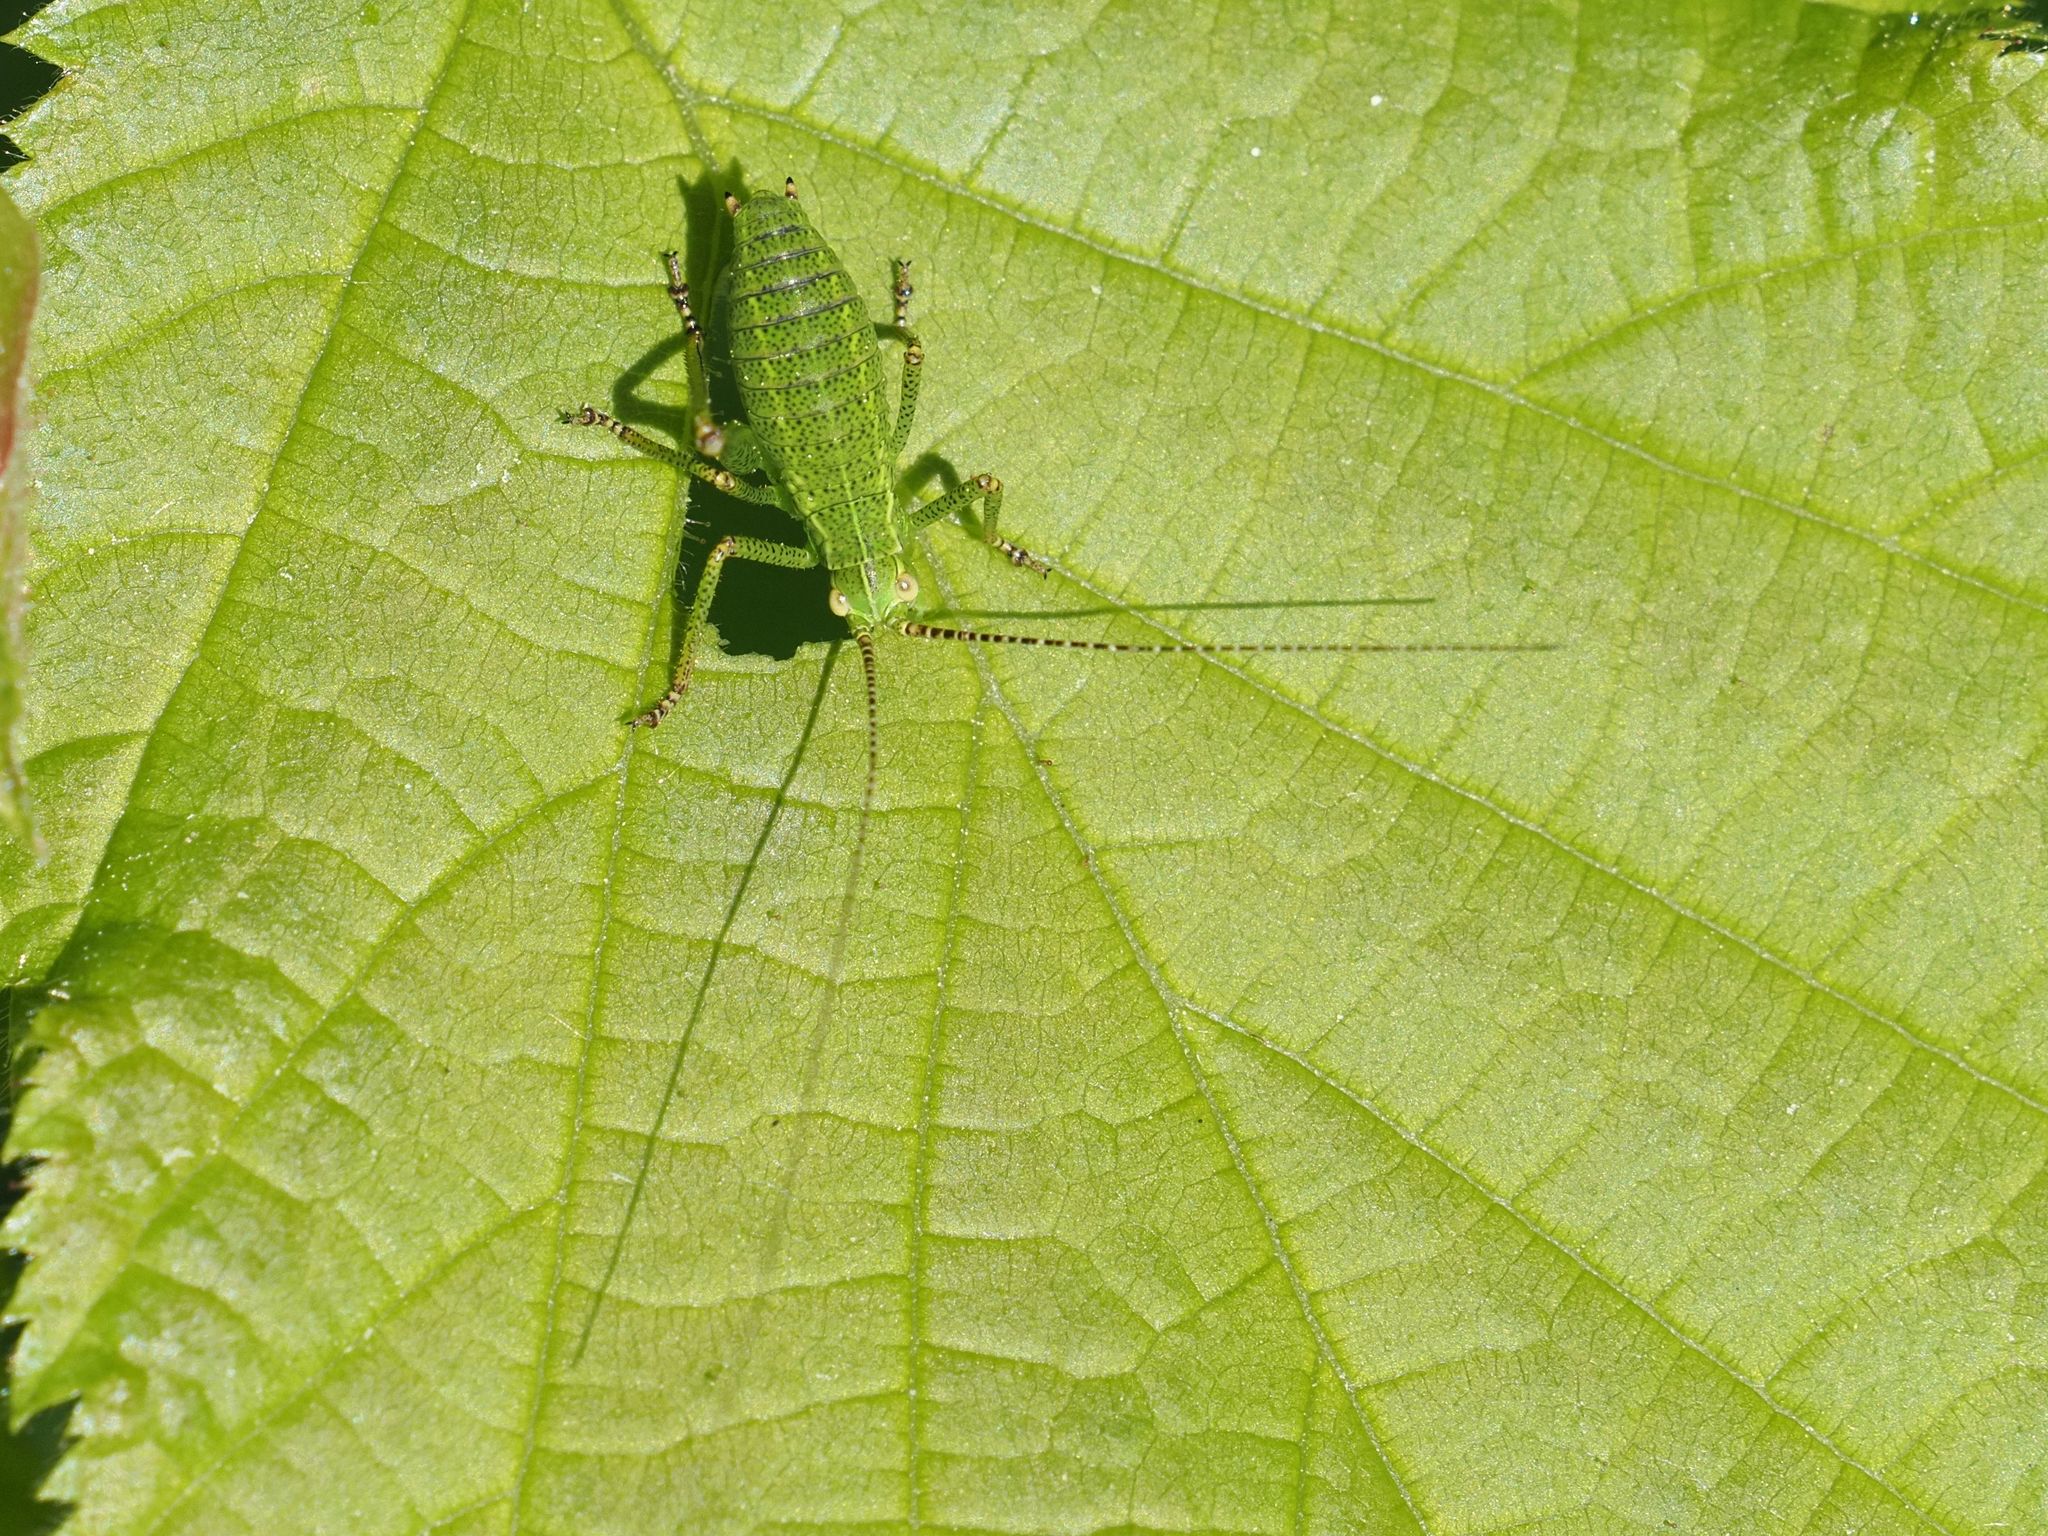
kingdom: Animalia
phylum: Arthropoda
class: Insecta
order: Orthoptera
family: Tettigoniidae
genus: Barbitistes
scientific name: Barbitistes serricauda
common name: Saw-tailed bush-cricket
